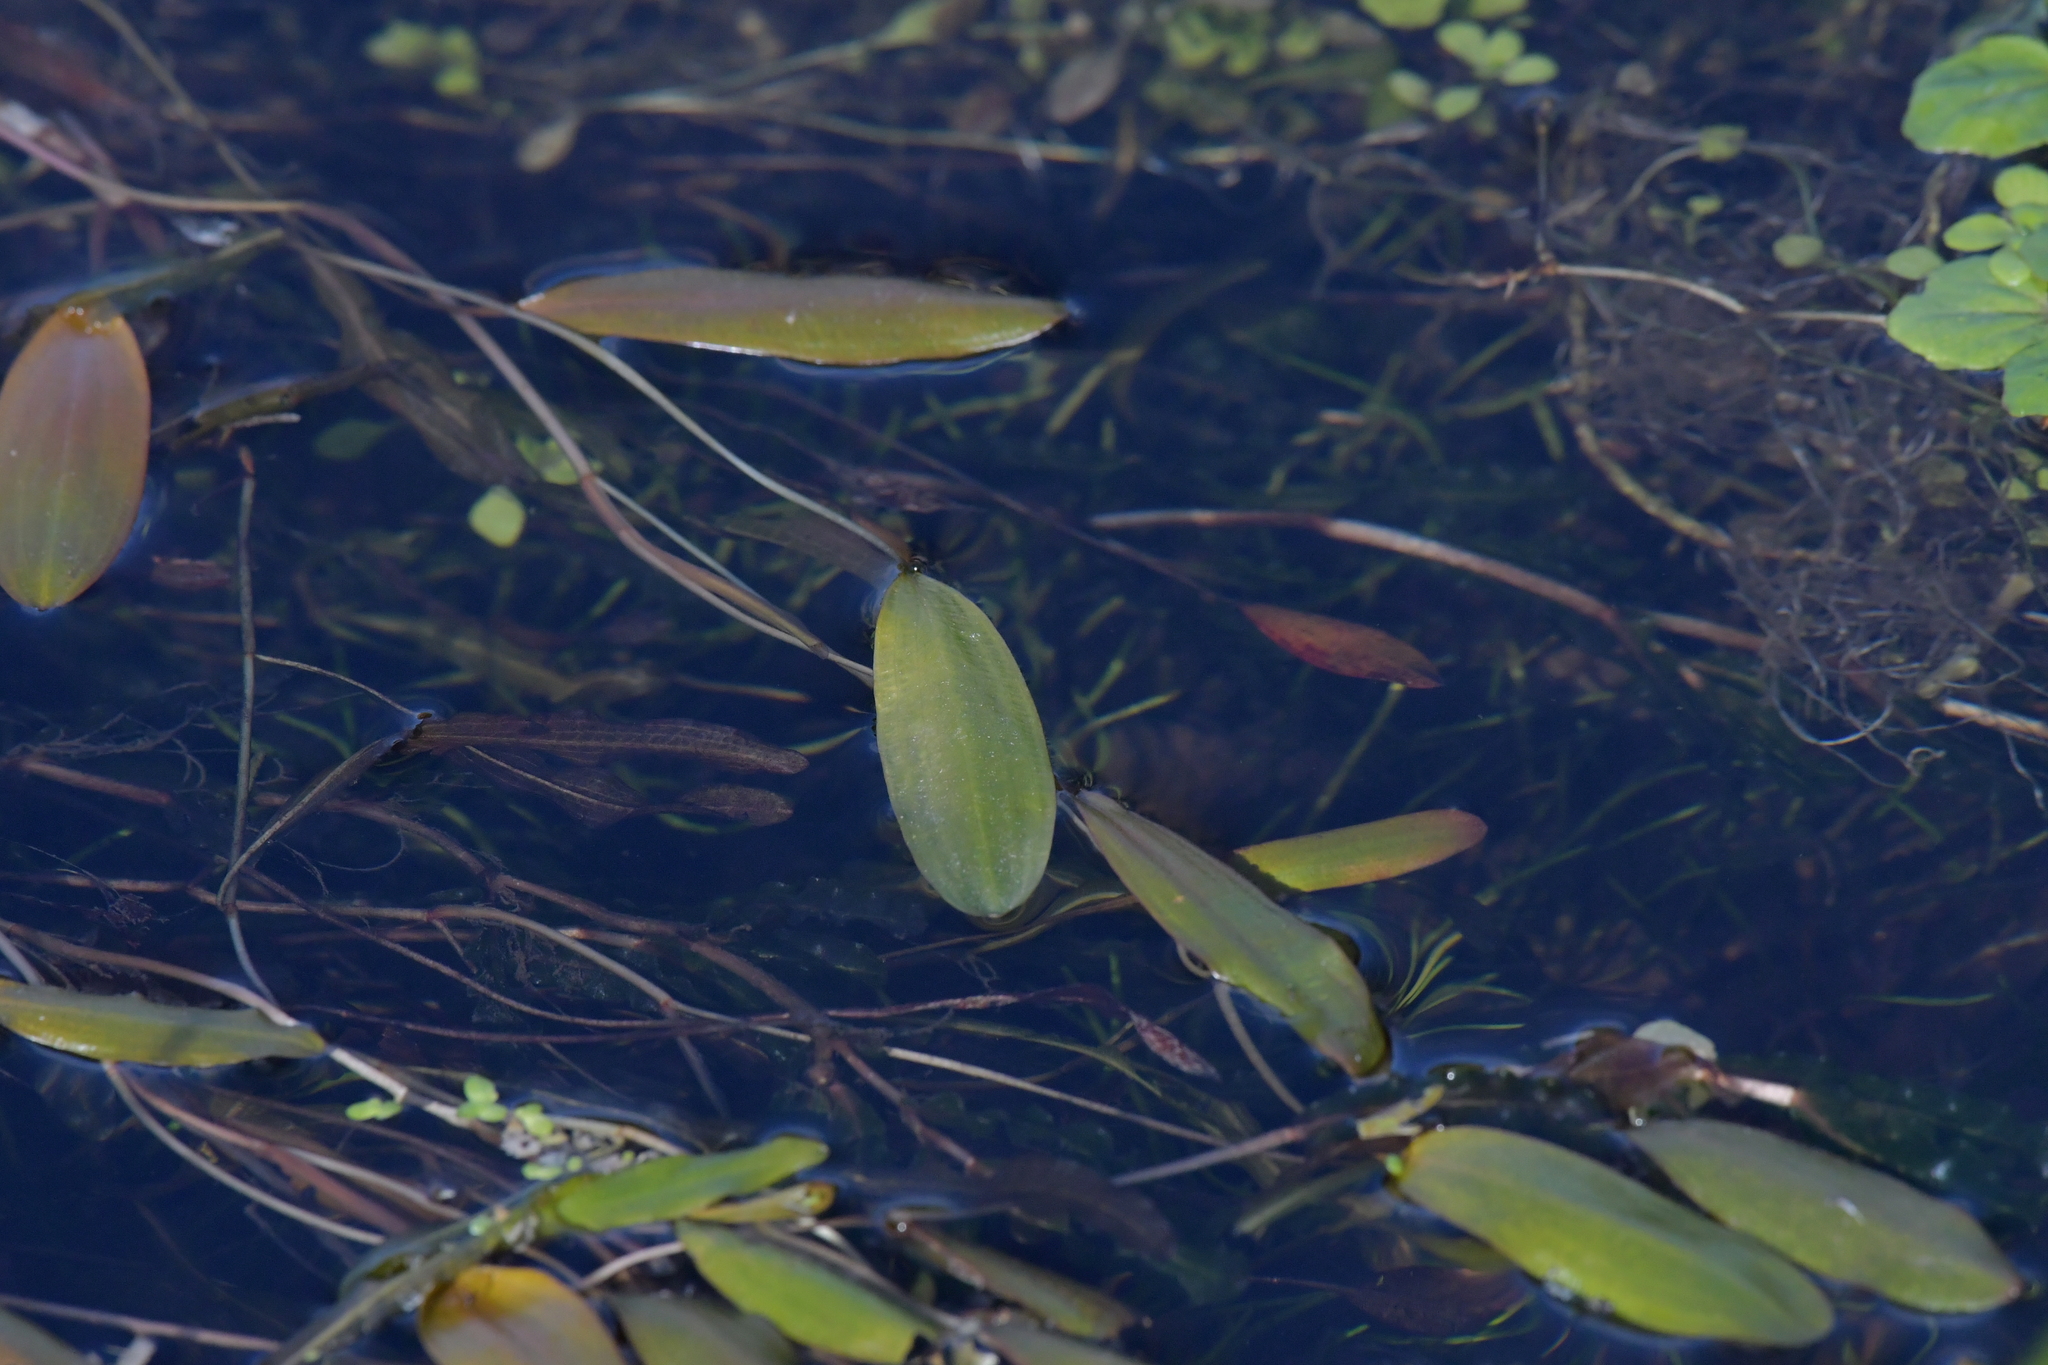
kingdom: Plantae
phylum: Tracheophyta
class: Liliopsida
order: Alismatales
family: Potamogetonaceae
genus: Potamogeton
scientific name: Potamogeton cheesemanii
